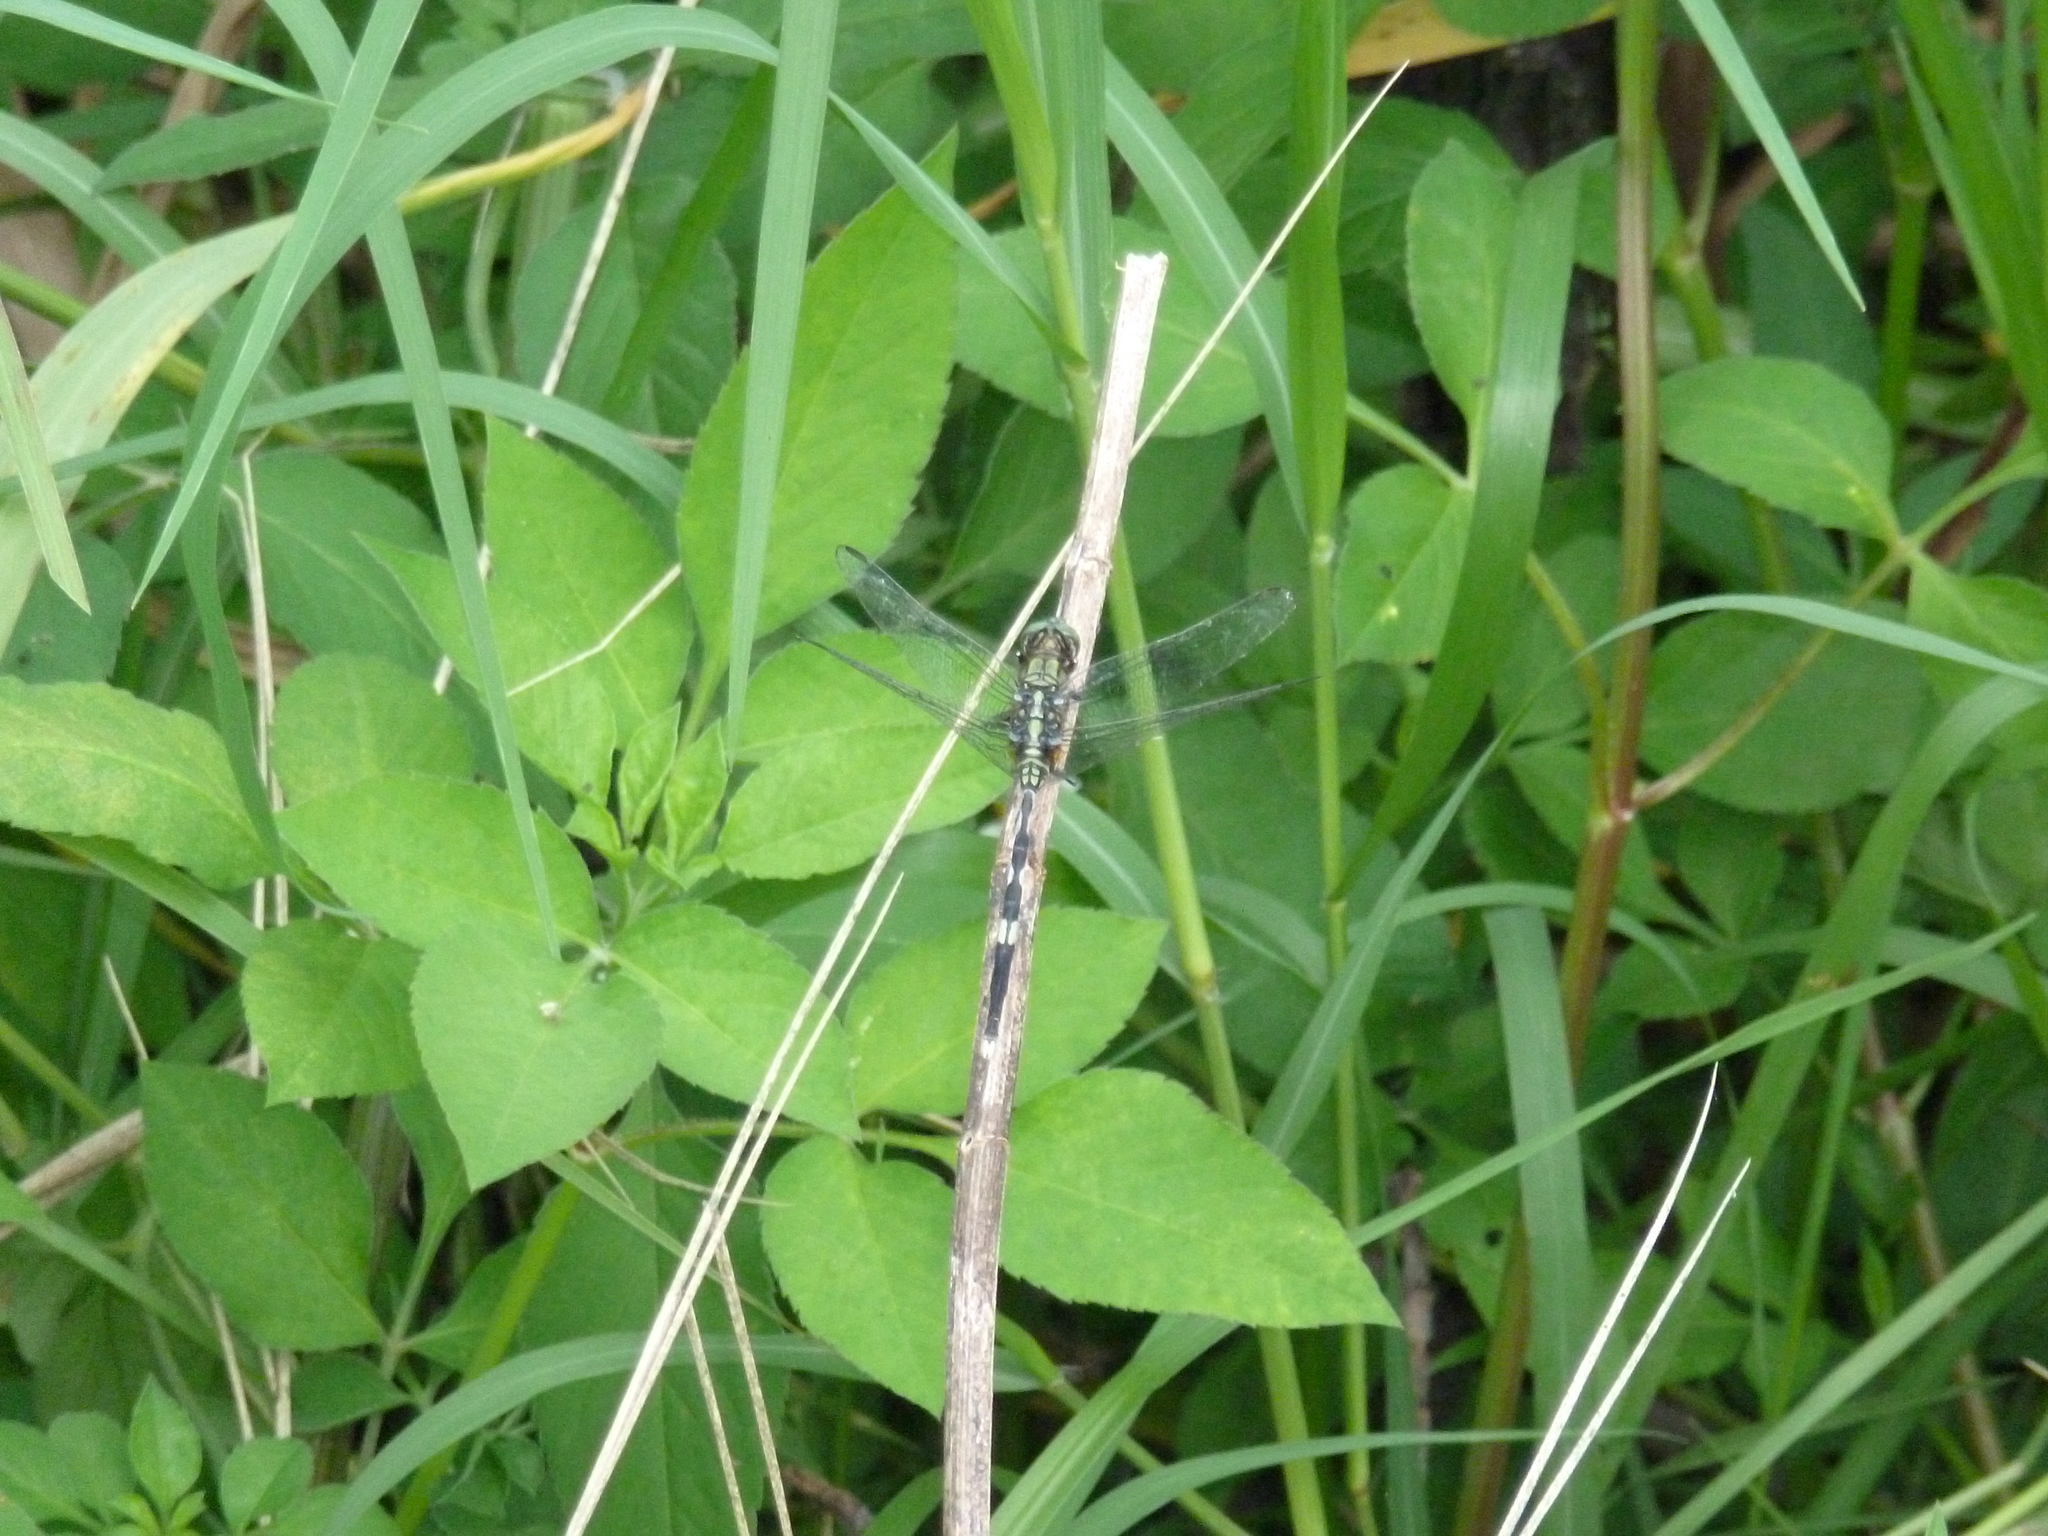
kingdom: Animalia
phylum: Arthropoda
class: Insecta
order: Odonata
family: Libellulidae
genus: Orthetrum
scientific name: Orthetrum sabina
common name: Slender skimmer
